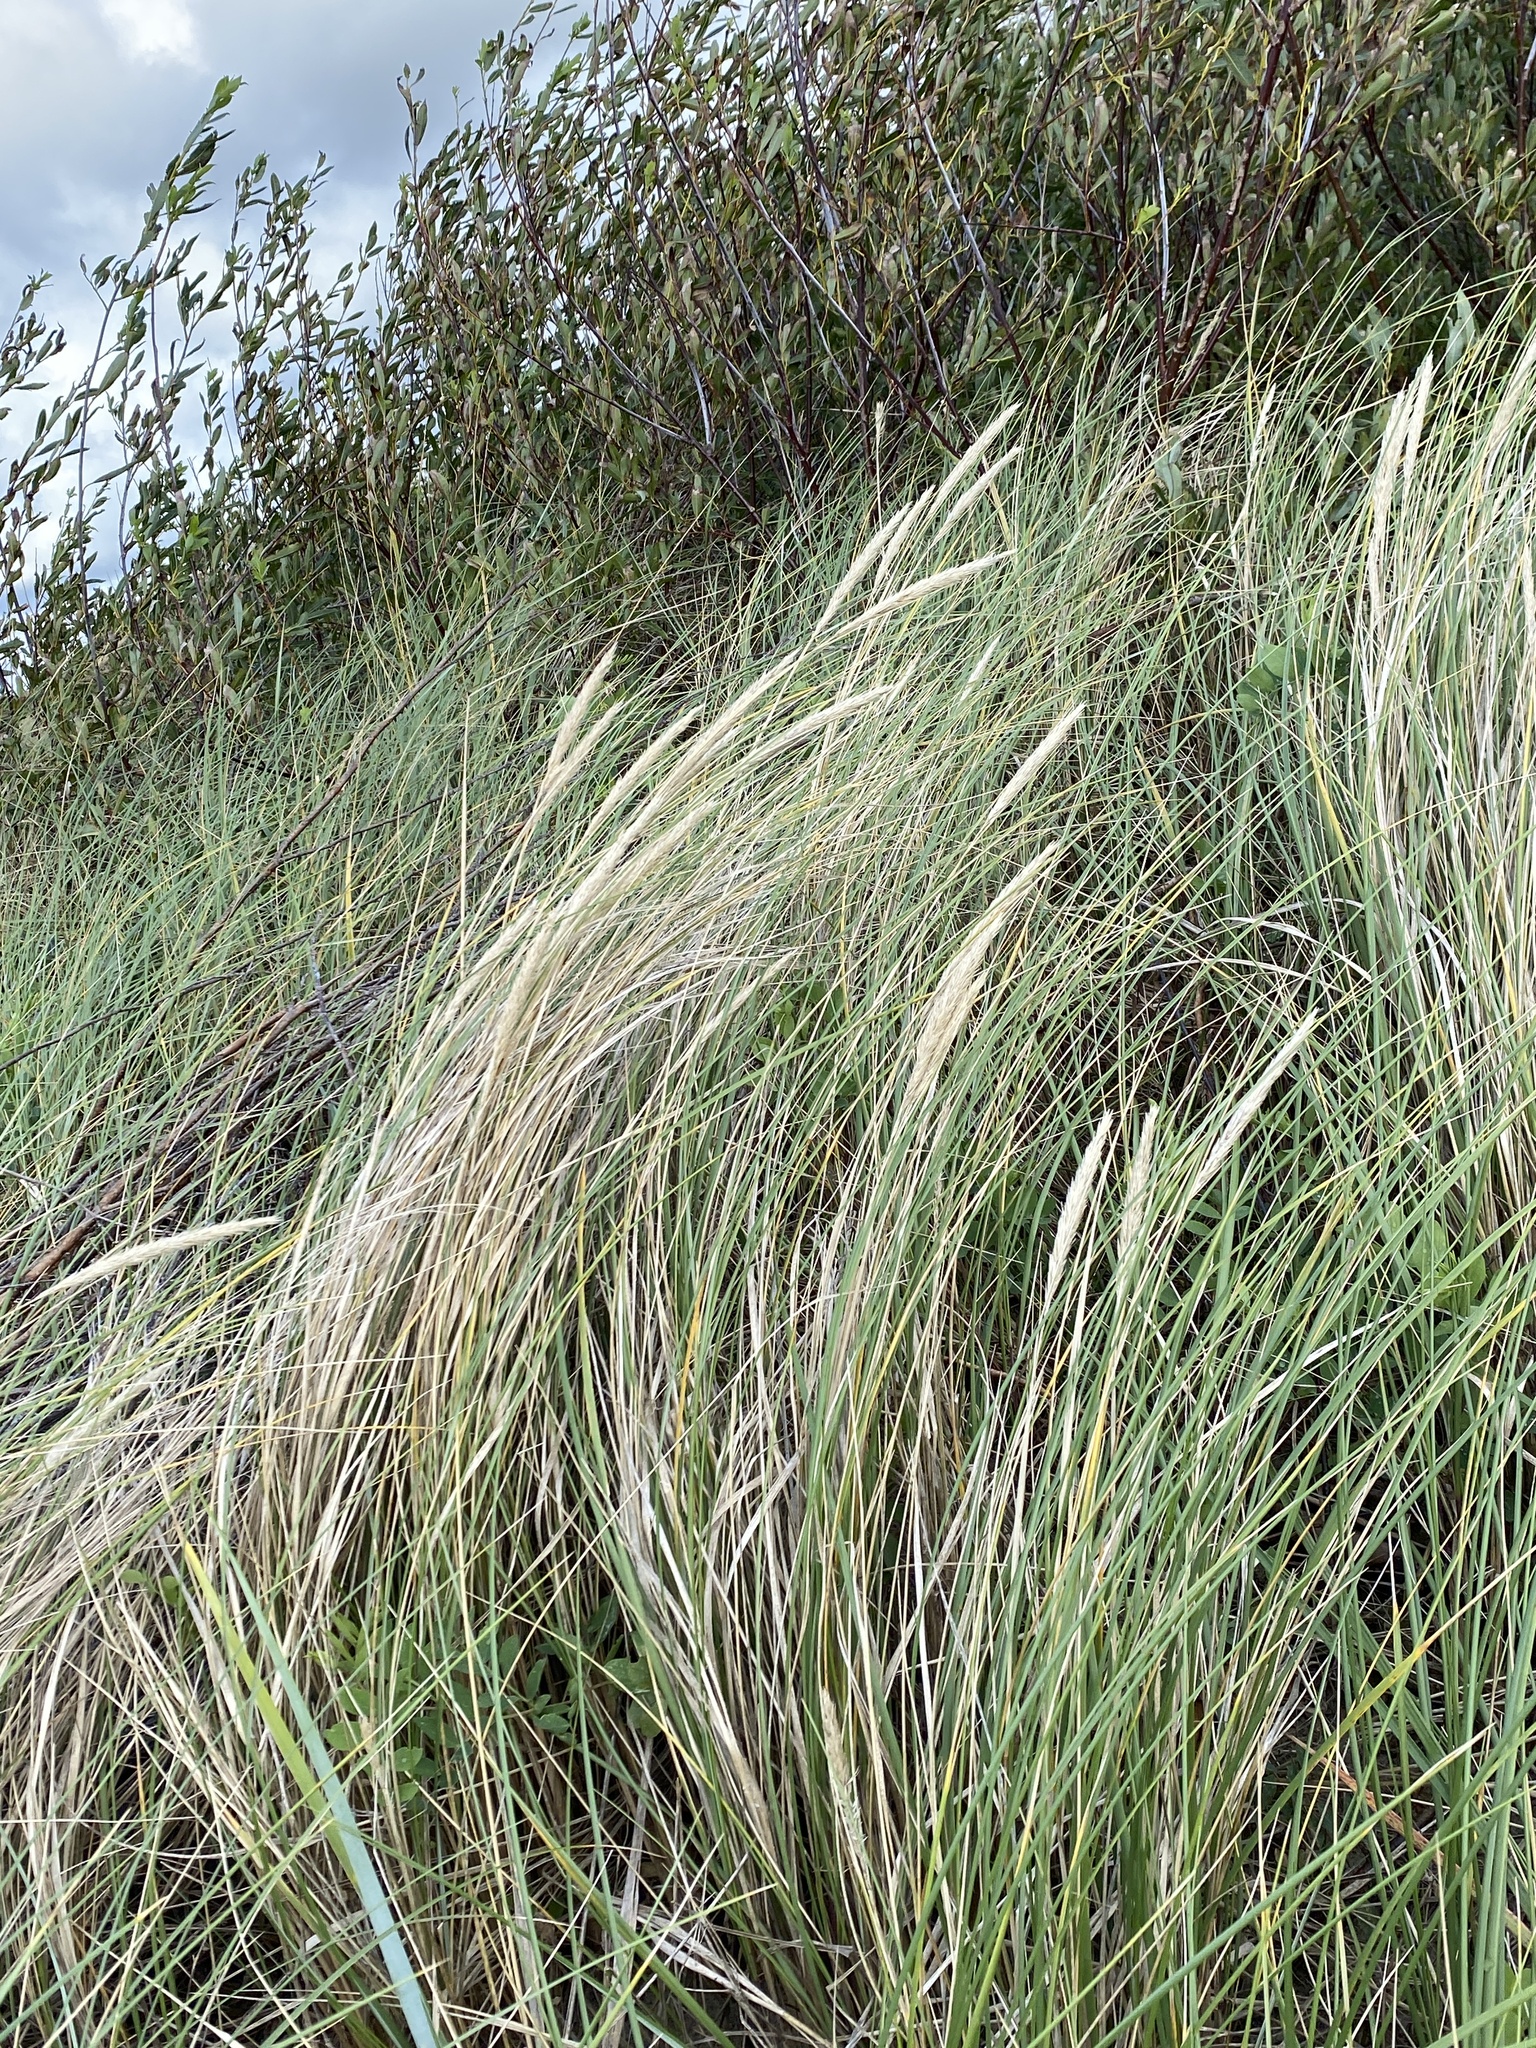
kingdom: Plantae
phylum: Tracheophyta
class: Liliopsida
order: Poales
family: Poaceae
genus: Calamagrostis
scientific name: Calamagrostis arenaria
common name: European beachgrass
